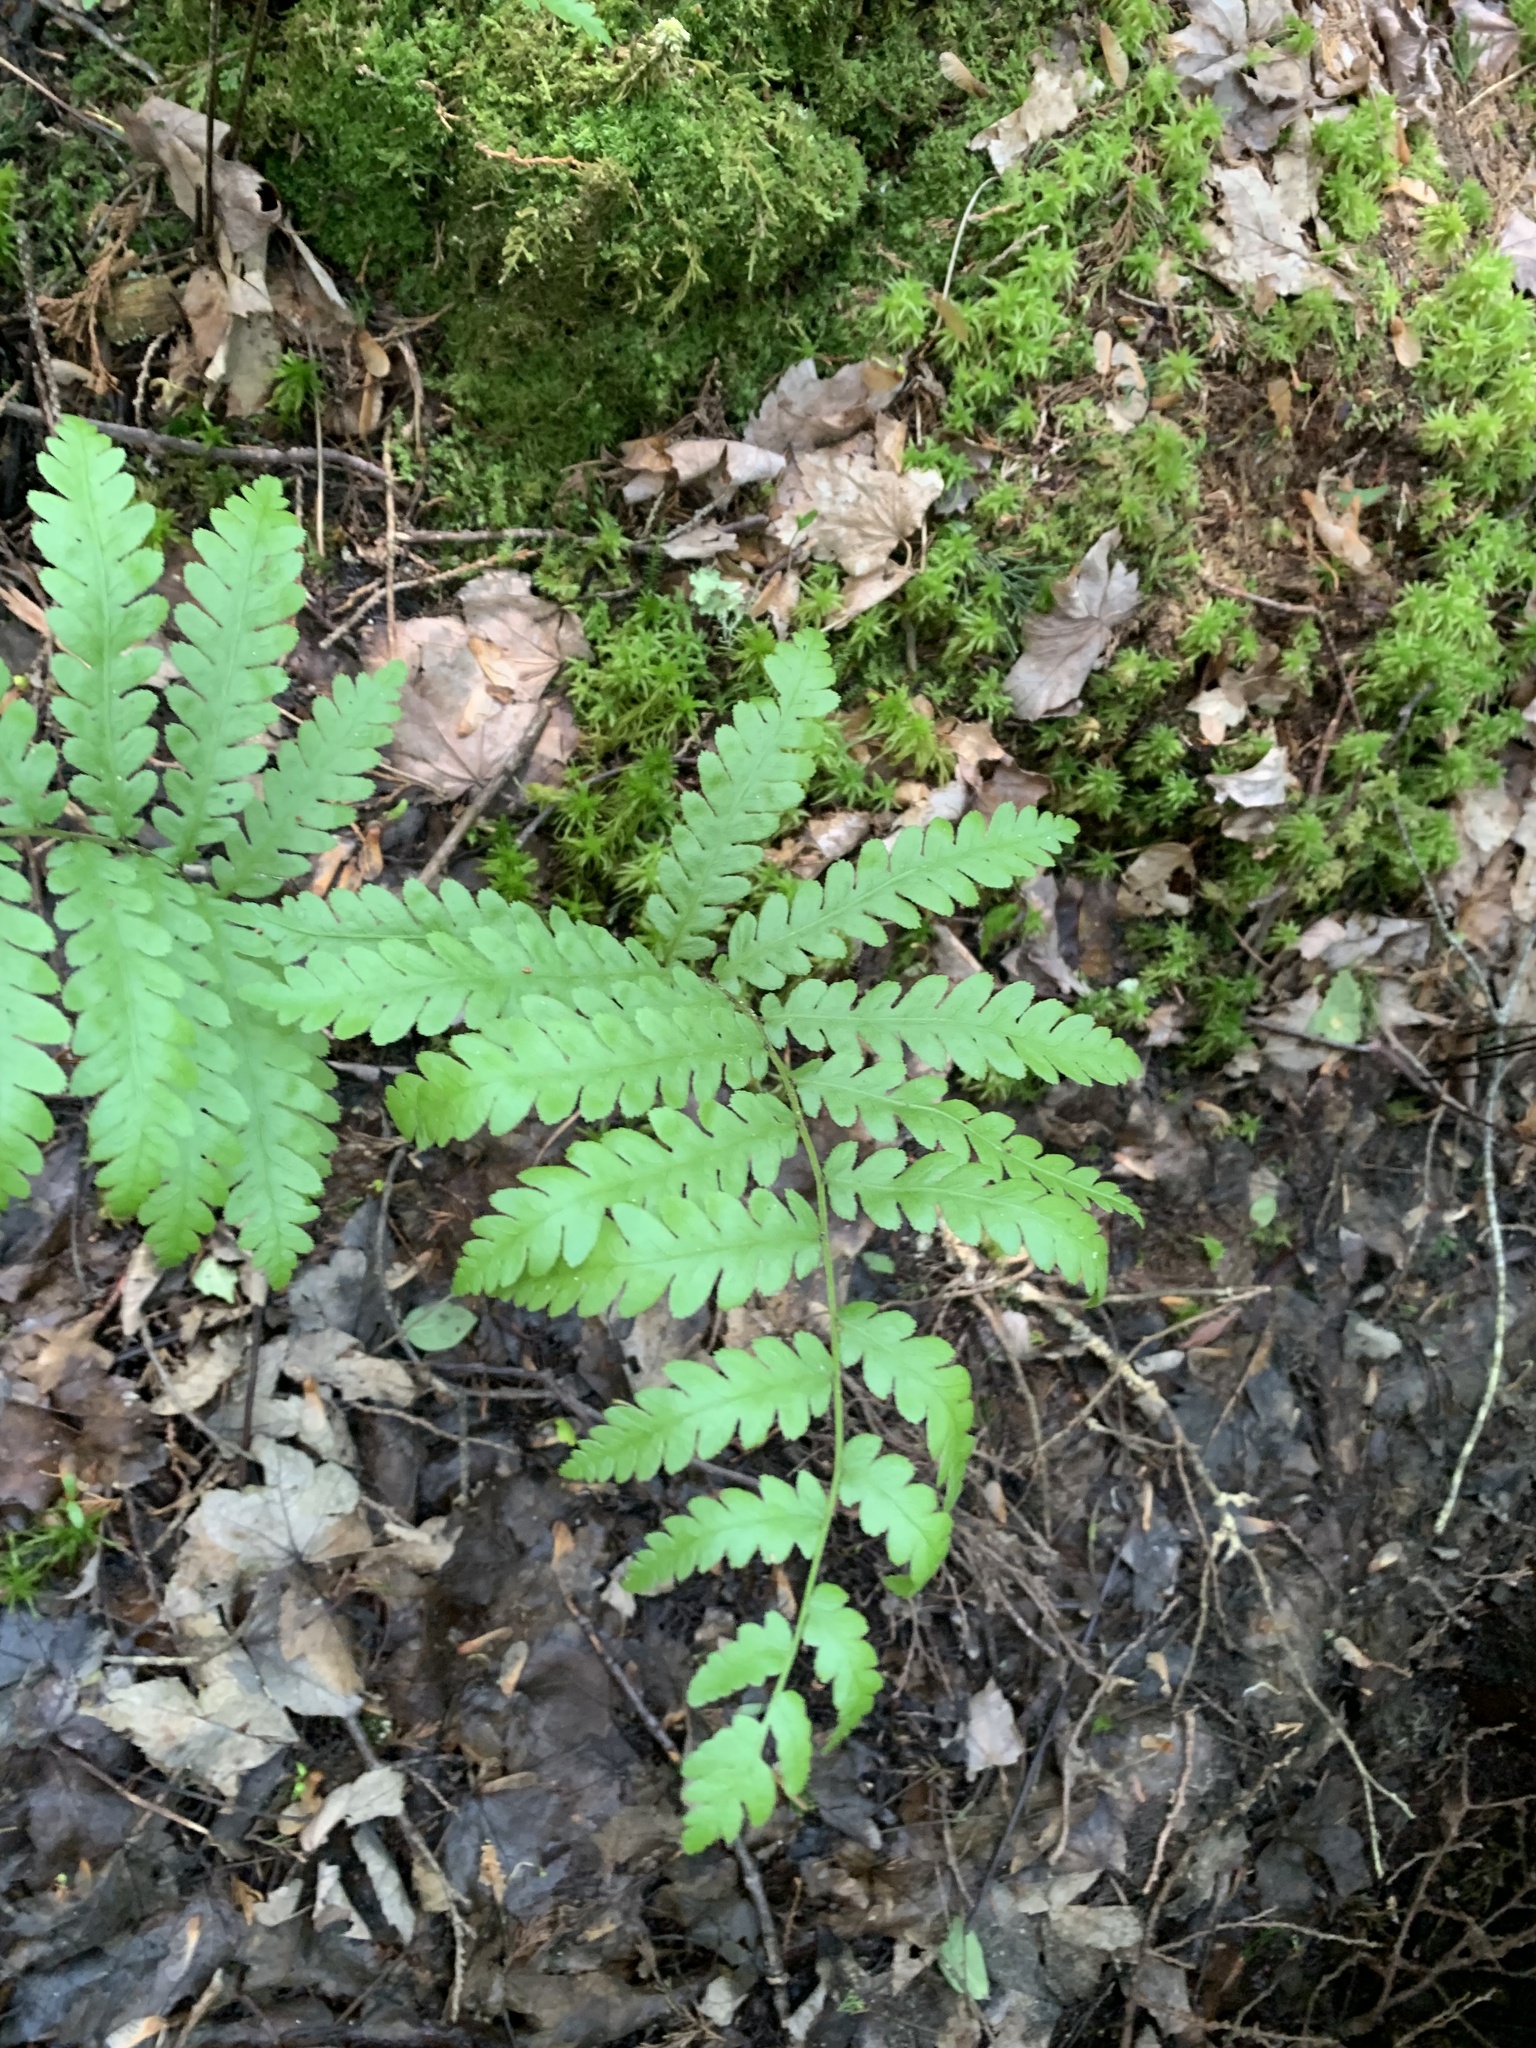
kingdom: Plantae
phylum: Tracheophyta
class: Polypodiopsida
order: Polypodiales
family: Blechnaceae
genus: Anchistea
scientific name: Anchistea virginica
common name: Virginia chain fern
